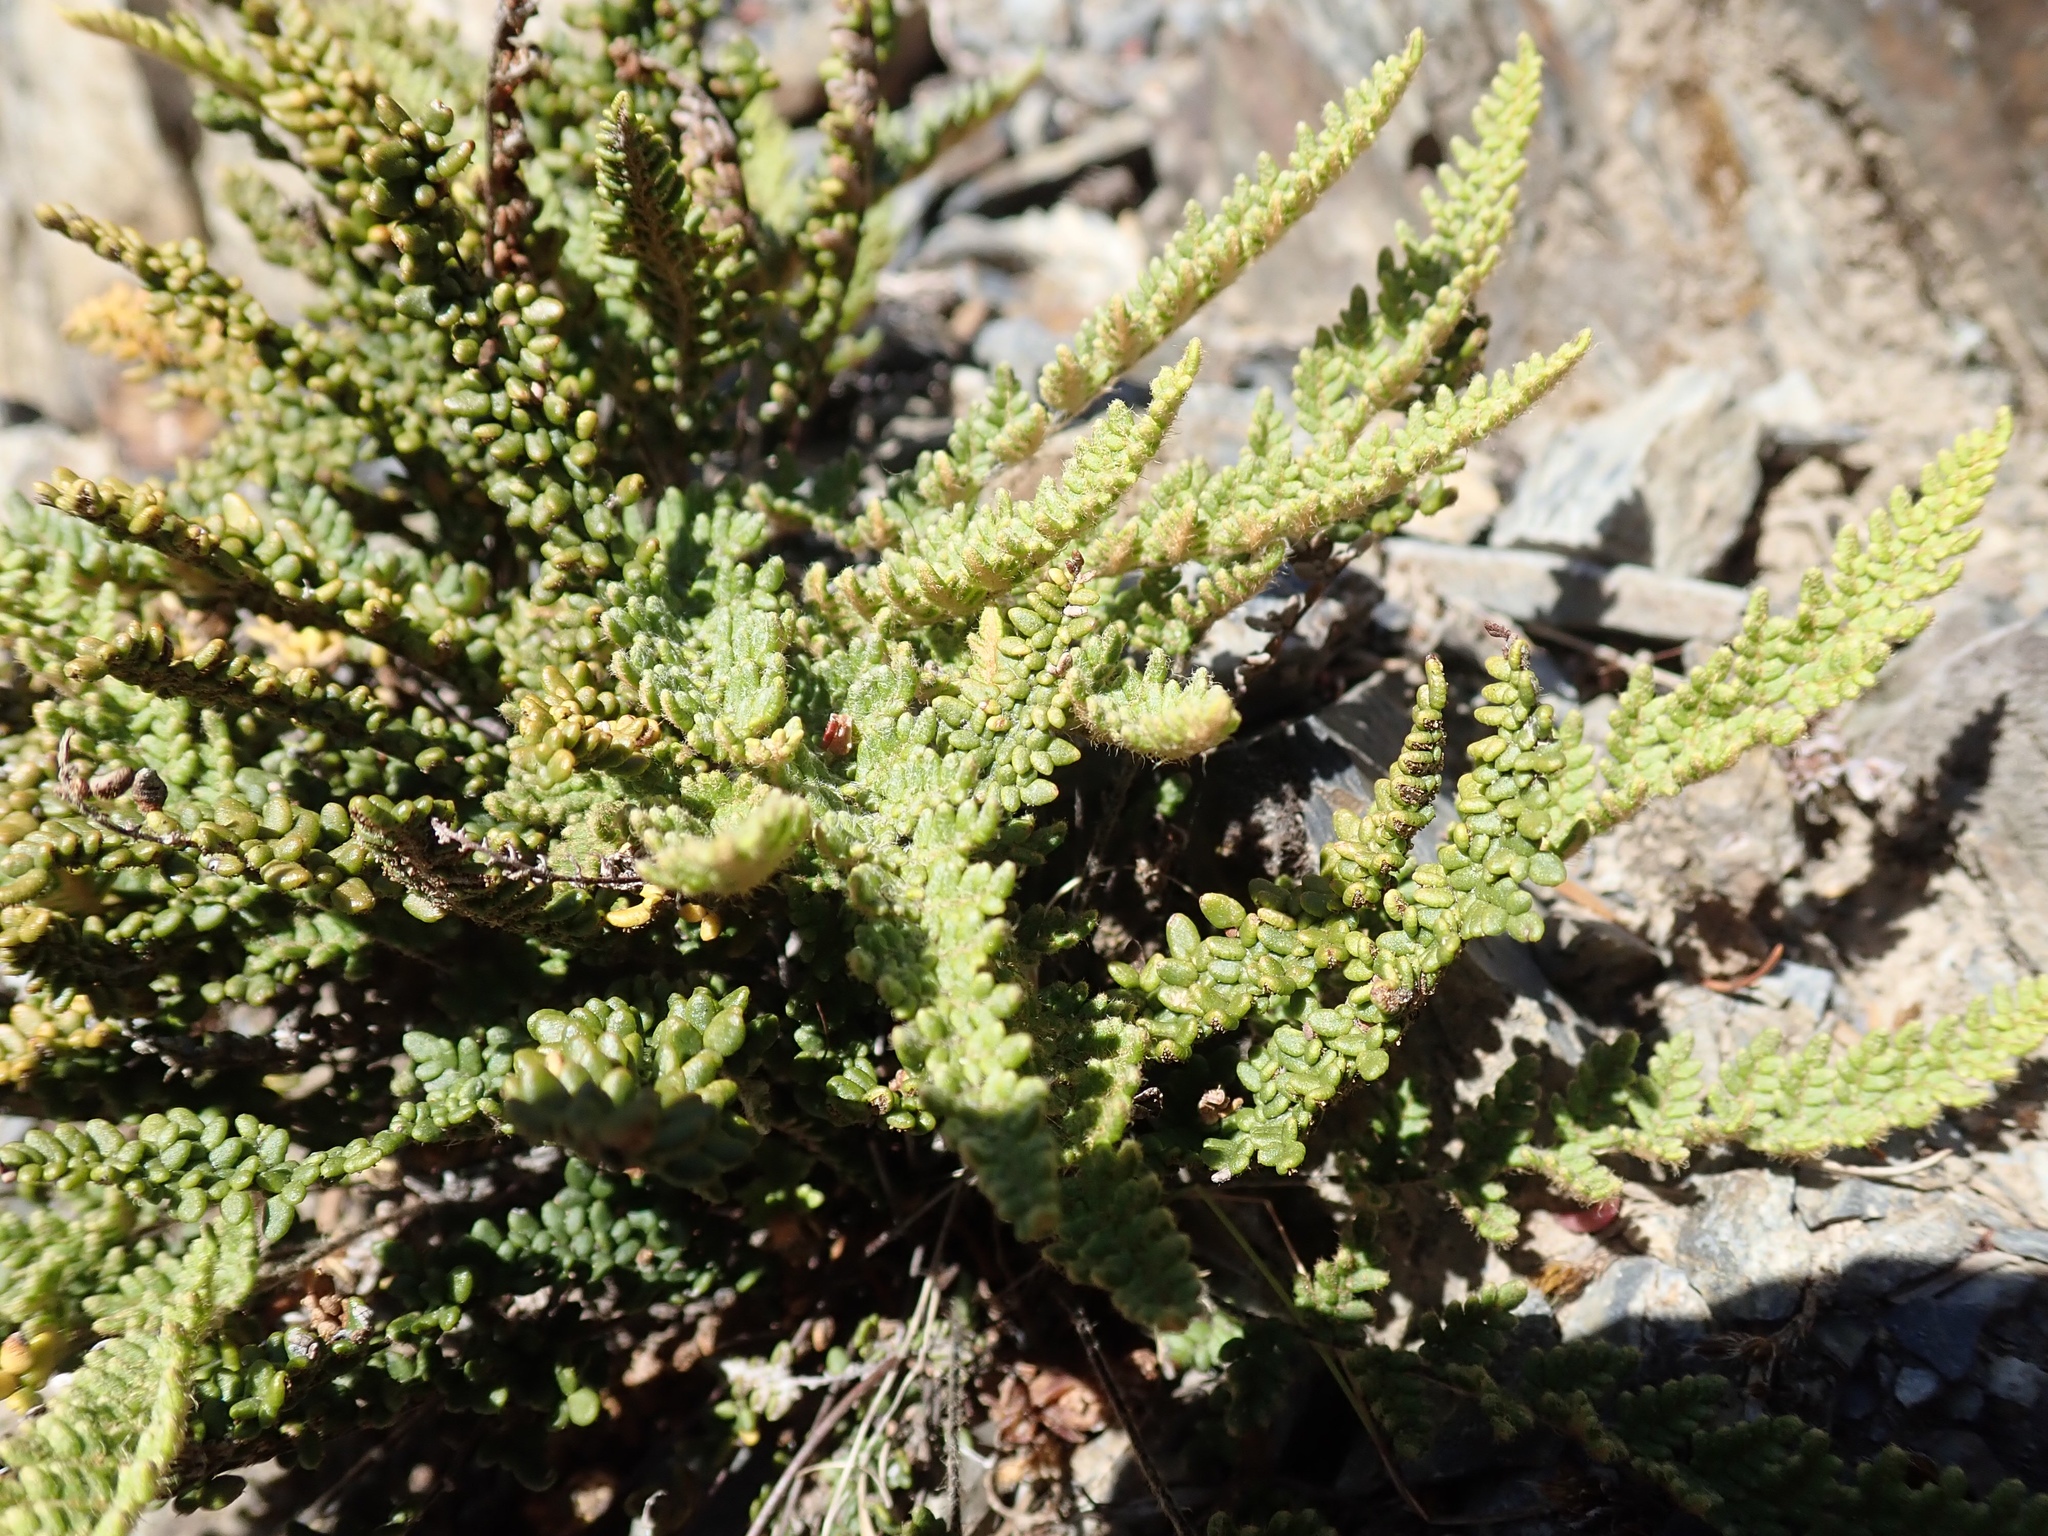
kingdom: Plantae
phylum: Tracheophyta
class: Polypodiopsida
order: Polypodiales
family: Pteridaceae
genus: Myriopteris
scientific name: Myriopteris gracillima
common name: Lace fern
